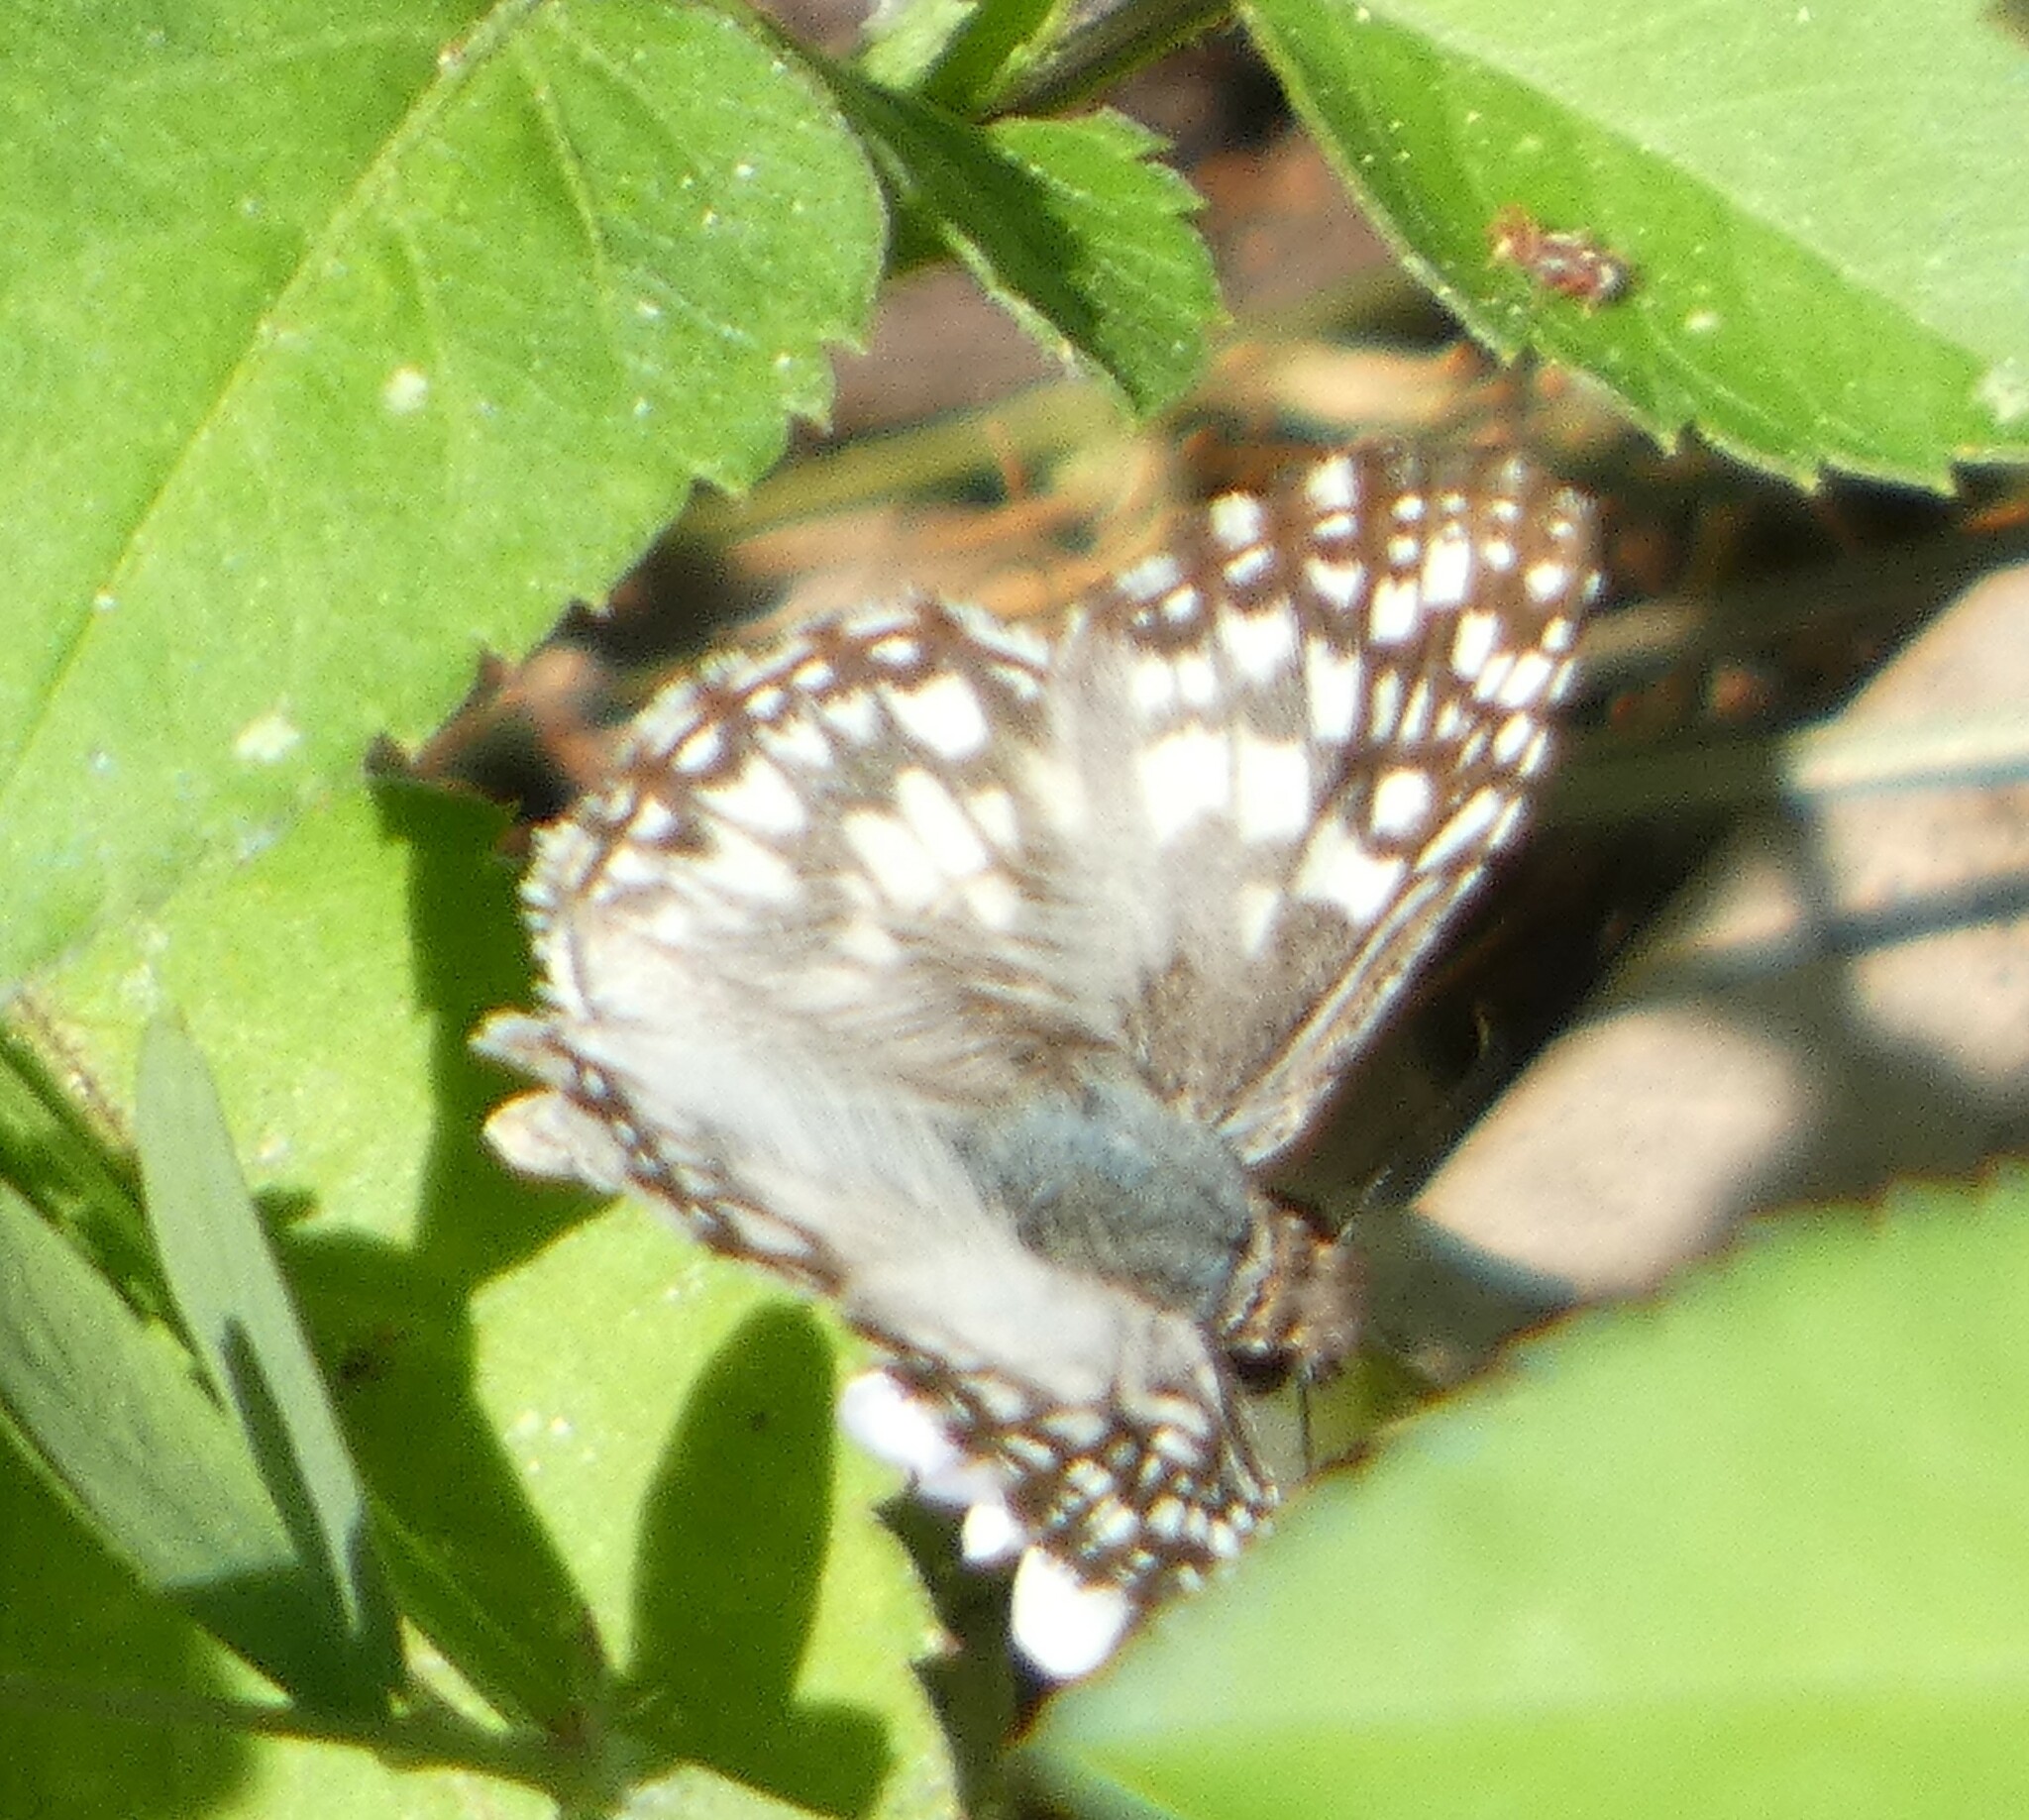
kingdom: Animalia
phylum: Arthropoda
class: Insecta
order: Lepidoptera
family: Hesperiidae
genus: Pyrgus
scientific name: Pyrgus oileus
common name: Tropical checkered-skipper
